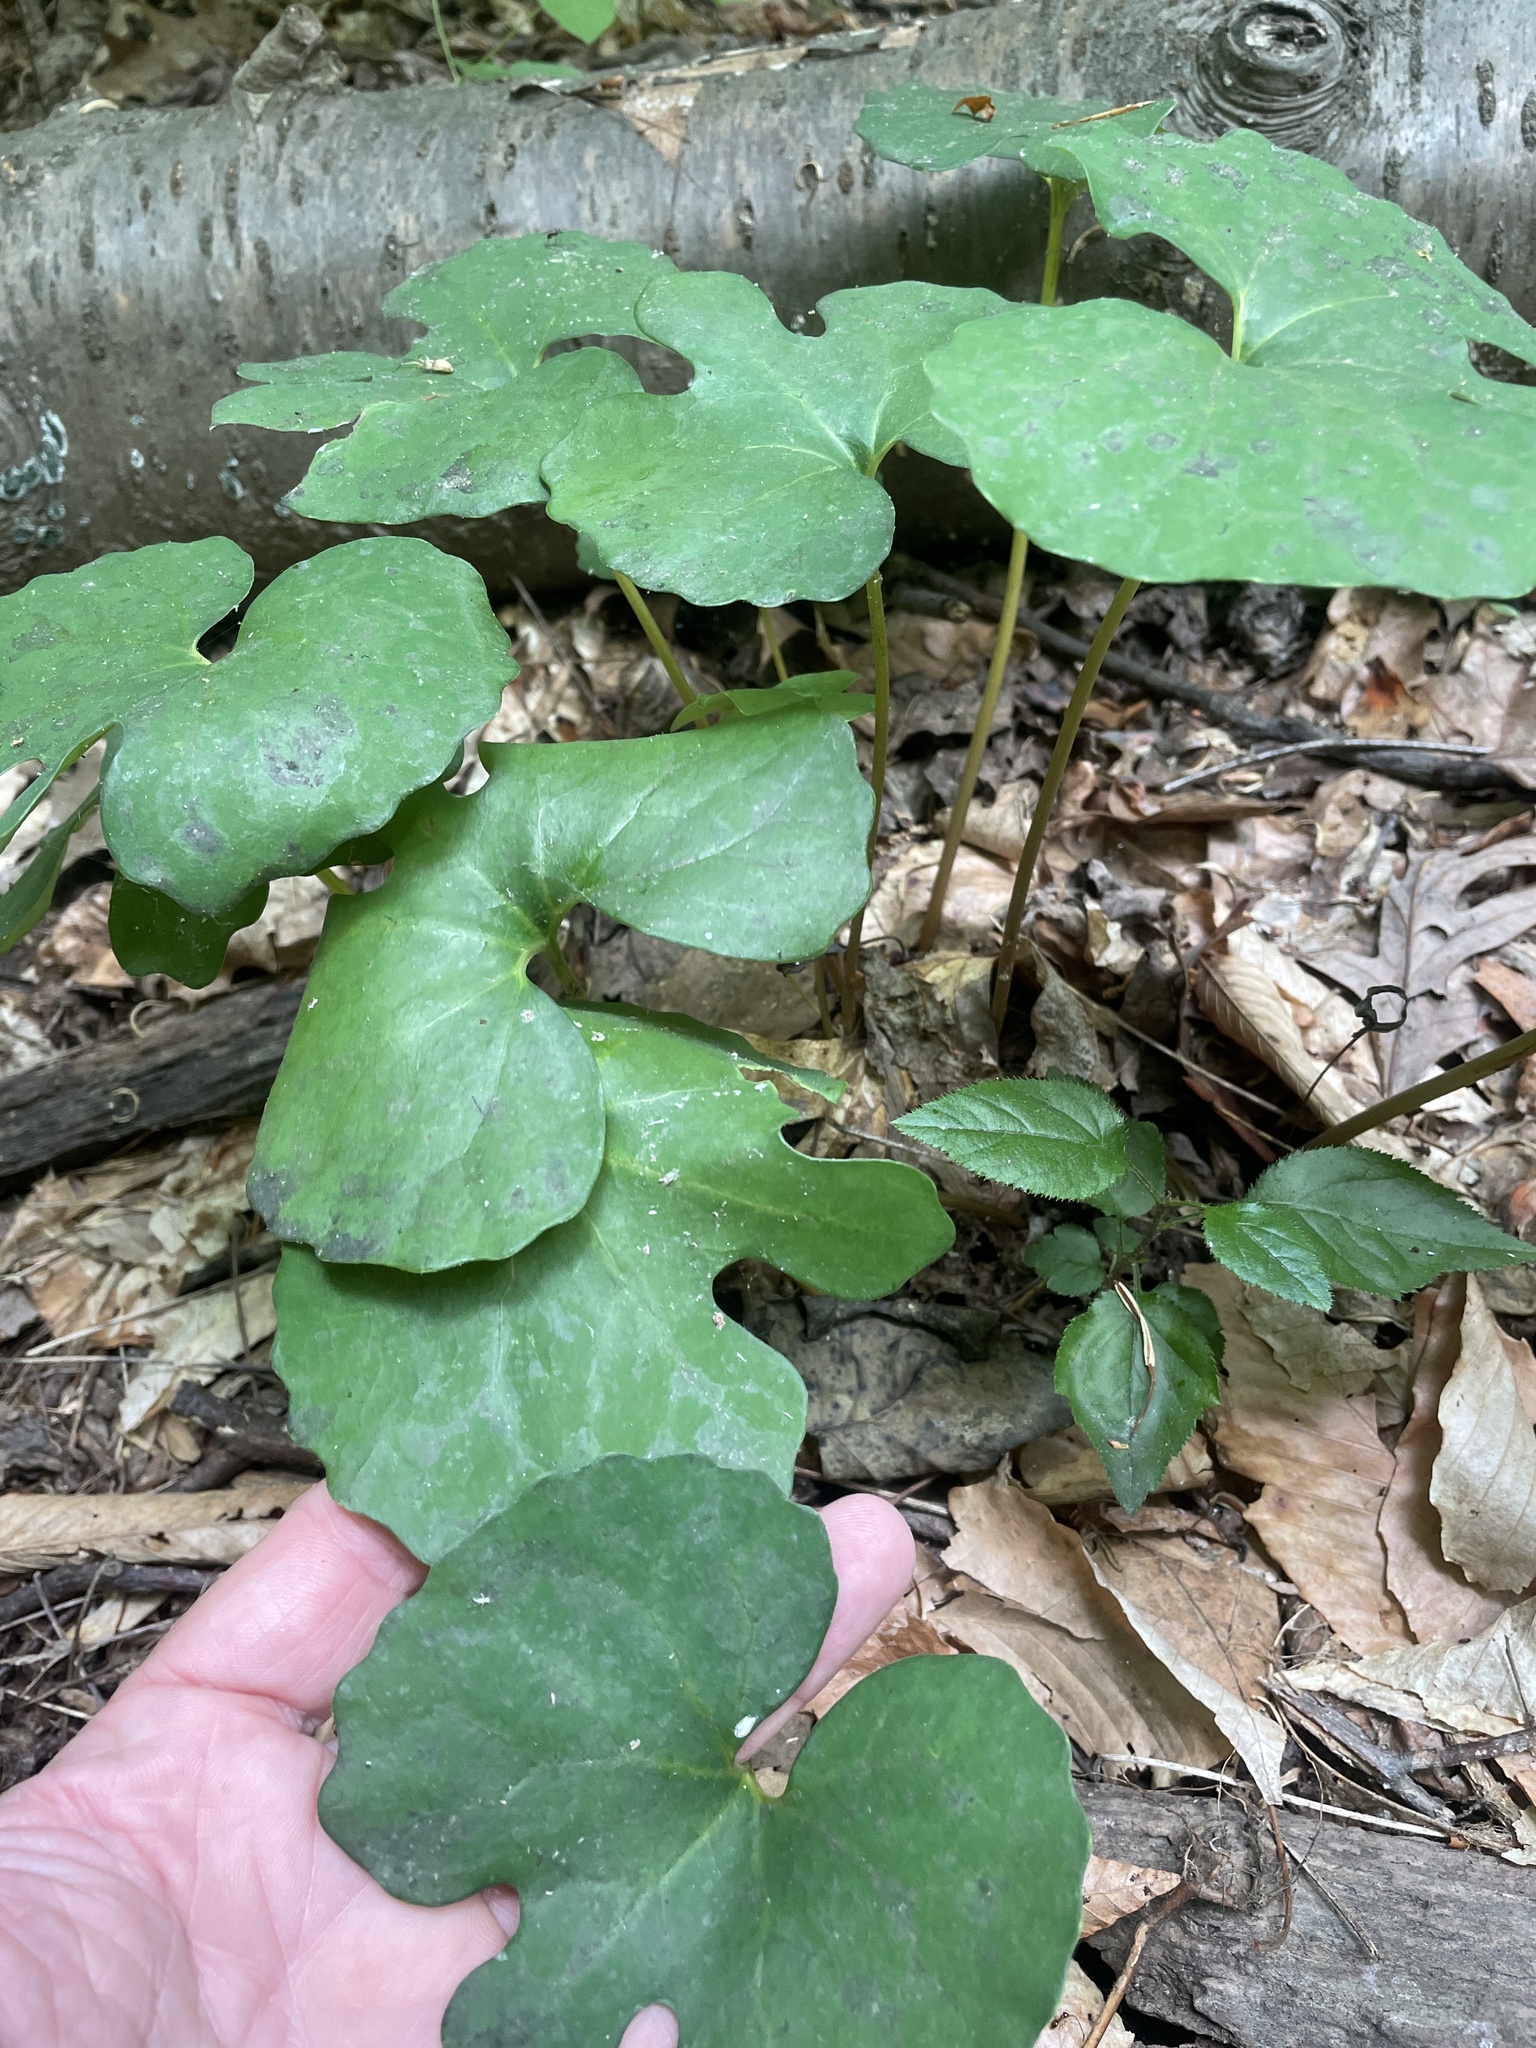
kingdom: Plantae
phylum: Tracheophyta
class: Magnoliopsida
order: Ranunculales
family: Papaveraceae
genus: Sanguinaria
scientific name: Sanguinaria canadensis
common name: Bloodroot
